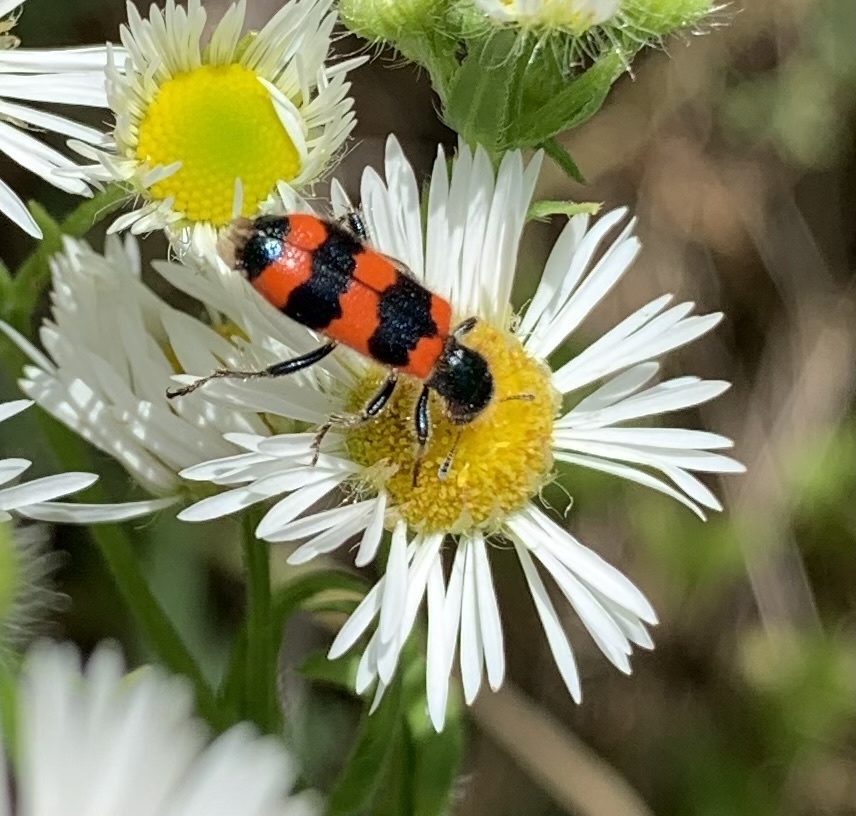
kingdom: Animalia
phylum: Arthropoda
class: Insecta
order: Coleoptera
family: Cleridae
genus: Trichodes
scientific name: Trichodes apiarius
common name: Bee-eating beetle
